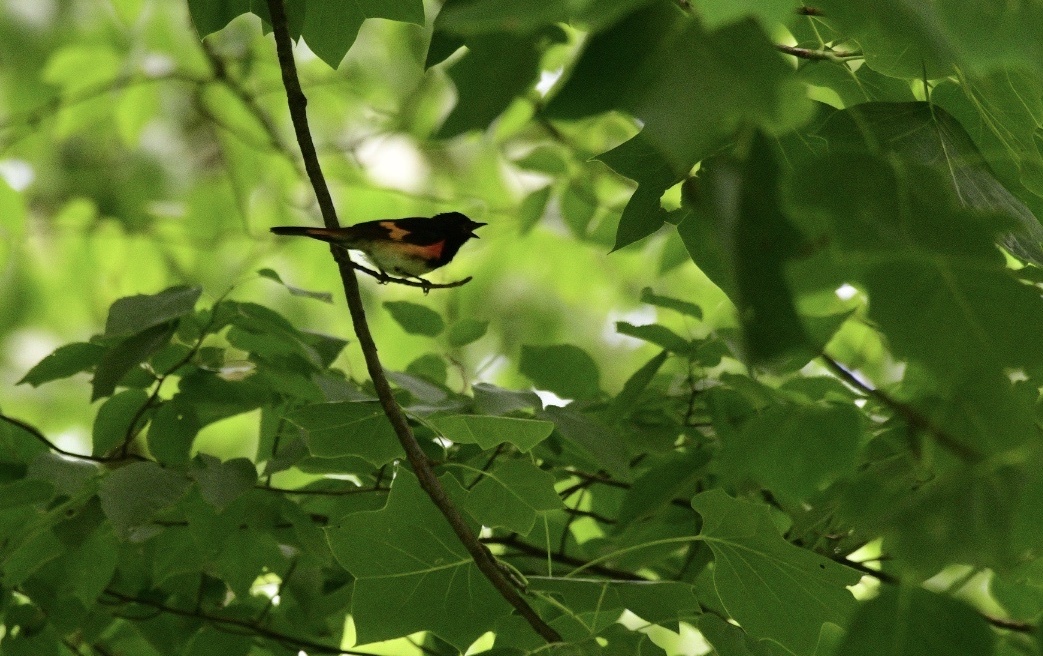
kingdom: Animalia
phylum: Chordata
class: Aves
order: Passeriformes
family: Parulidae
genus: Setophaga
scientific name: Setophaga ruticilla
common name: American redstart
